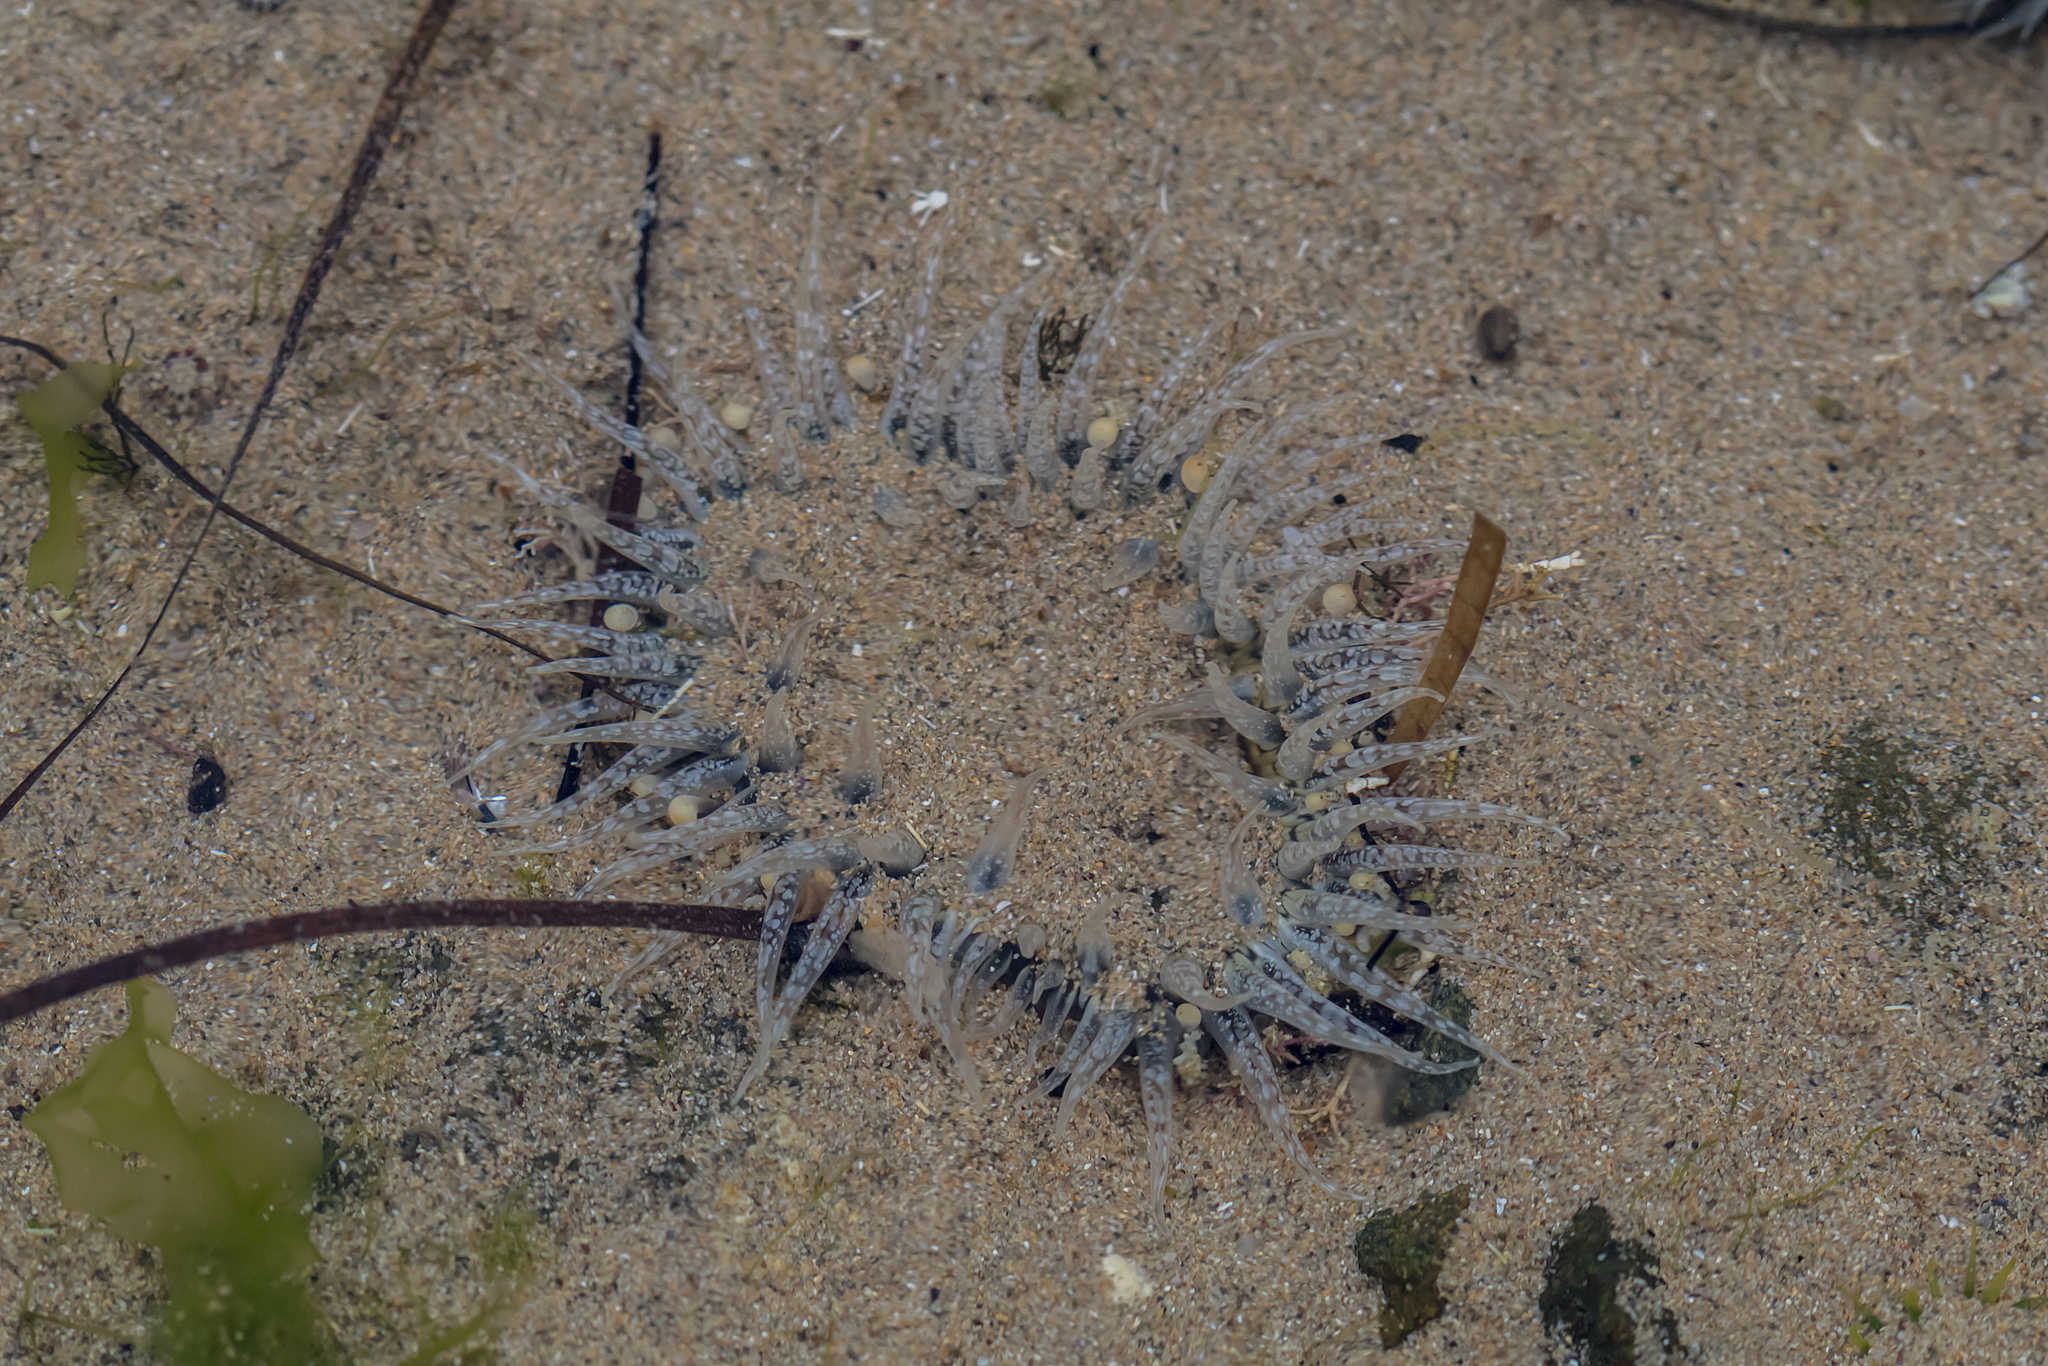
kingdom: Animalia
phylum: Cnidaria
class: Anthozoa
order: Actiniaria
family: Actiniidae
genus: Oulactis
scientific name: Oulactis muscosa
